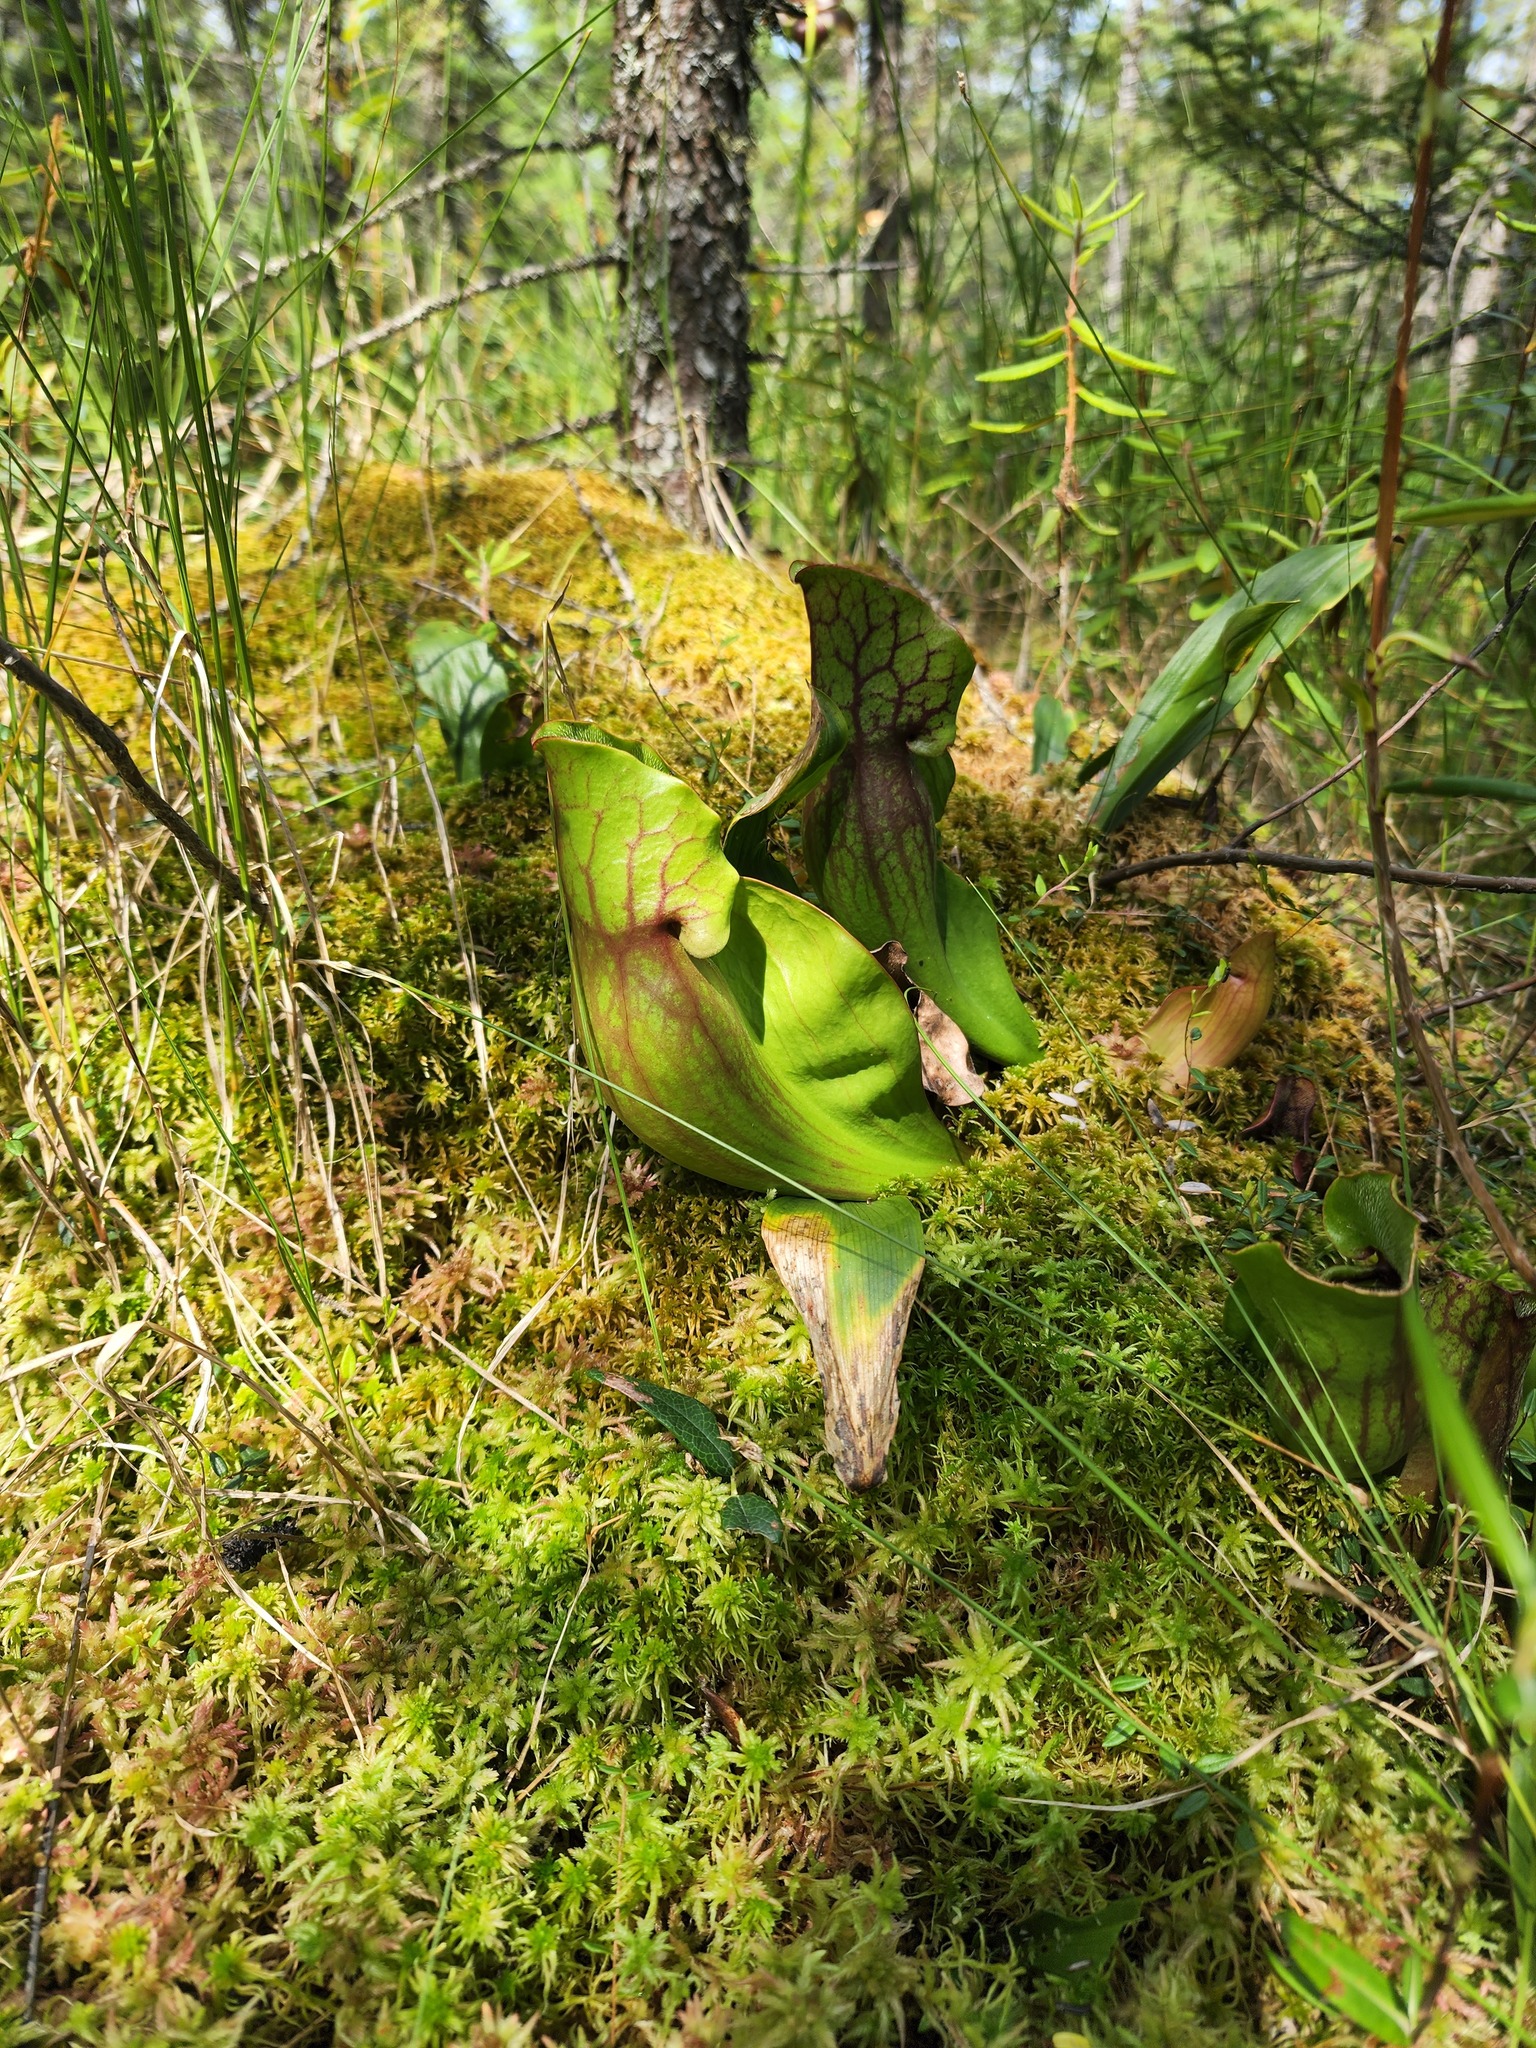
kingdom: Plantae
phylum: Tracheophyta
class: Magnoliopsida
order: Ericales
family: Sarraceniaceae
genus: Sarracenia
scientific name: Sarracenia purpurea
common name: Pitcherplant
